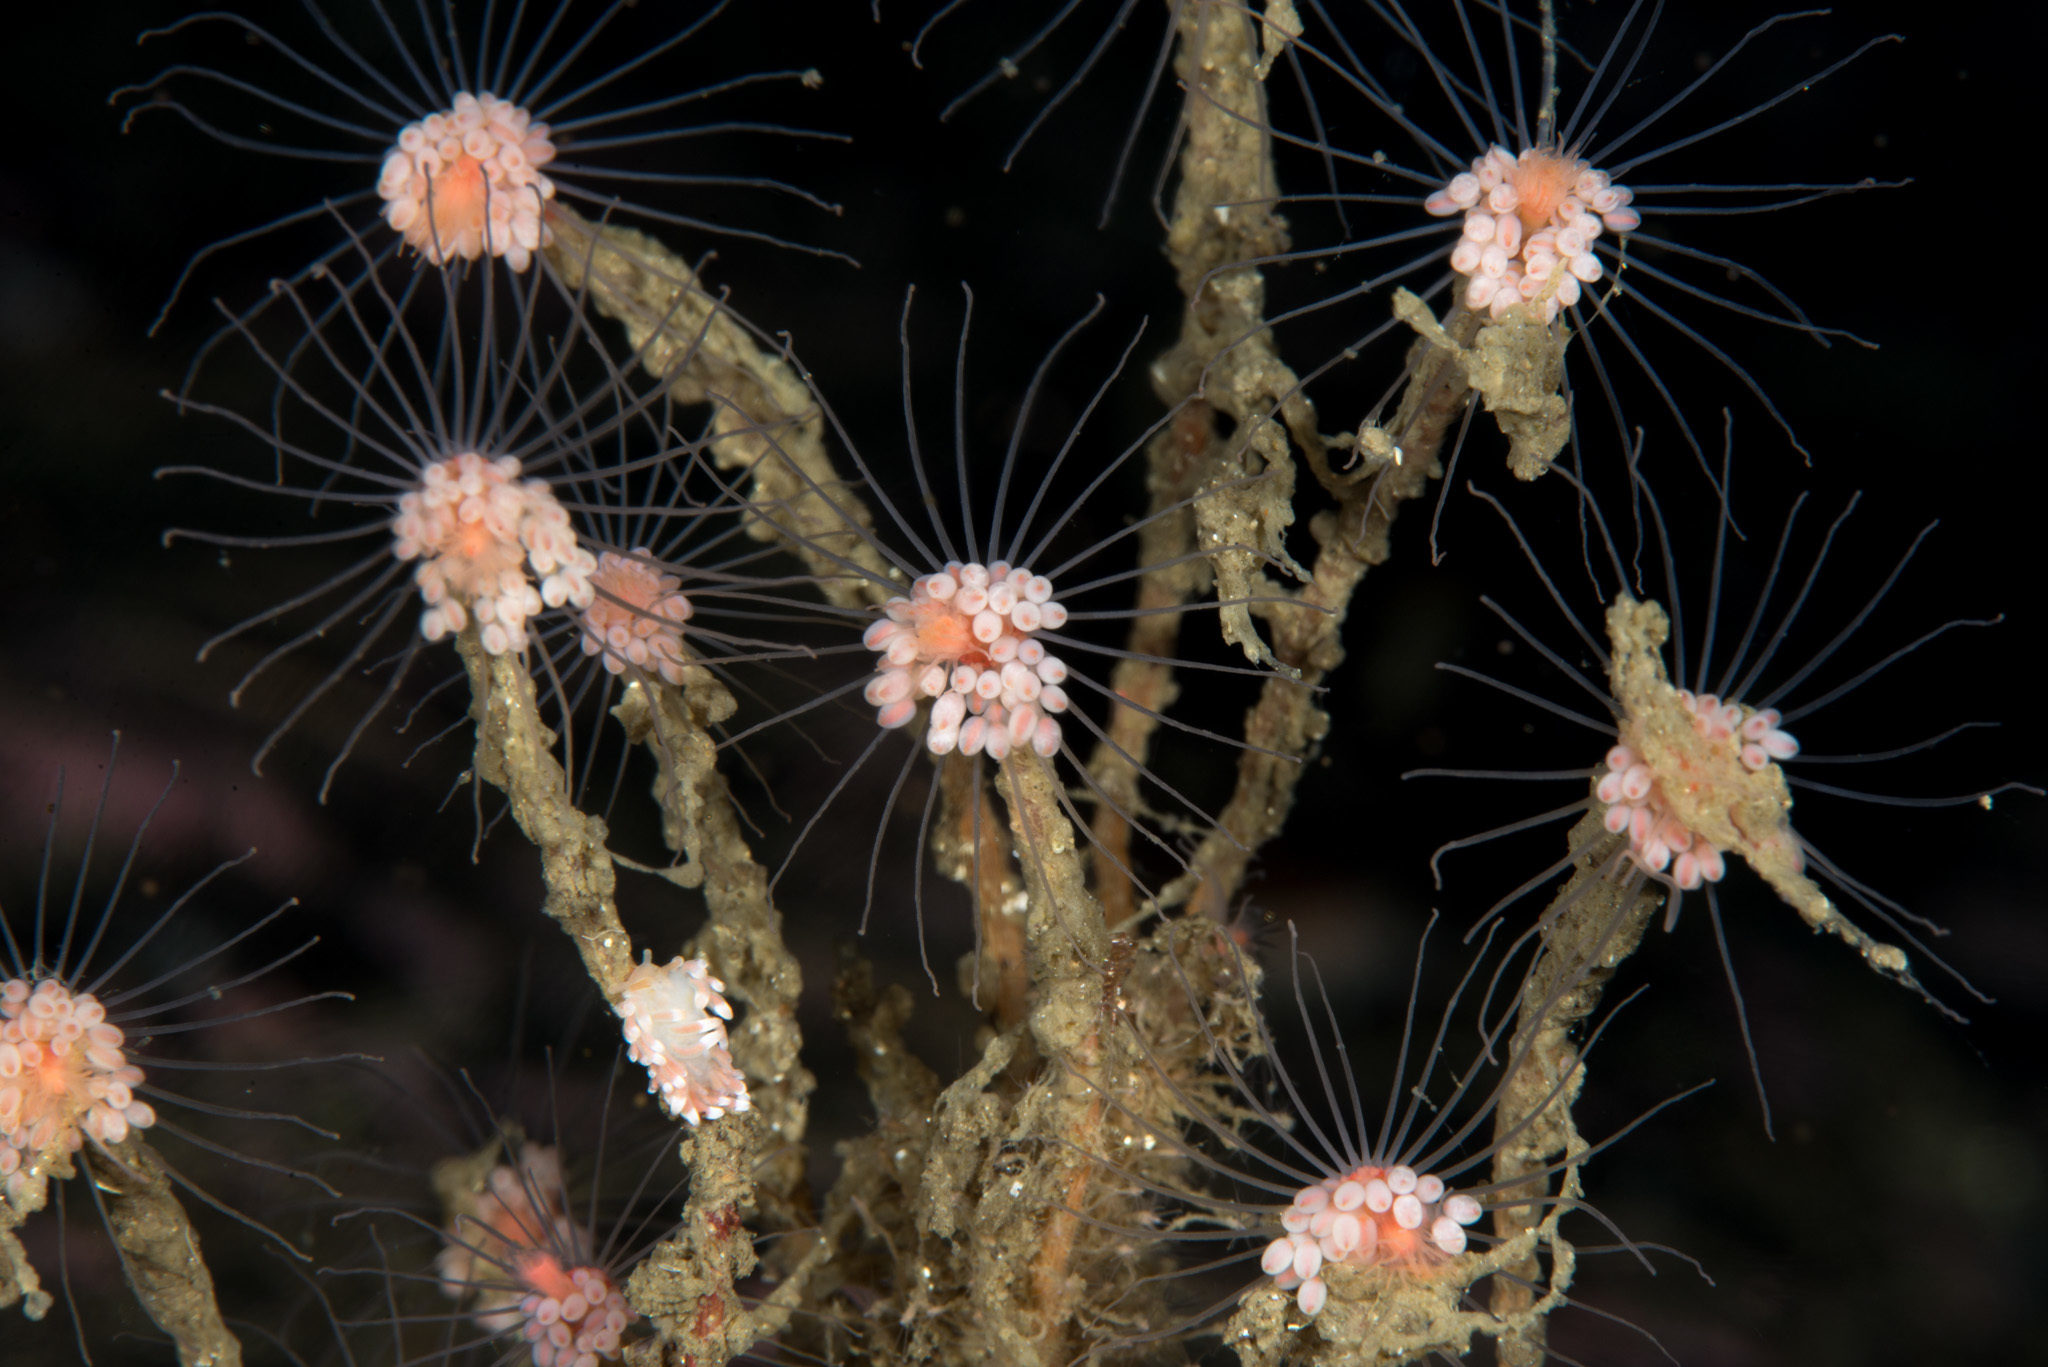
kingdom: Animalia
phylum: Cnidaria
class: Hydrozoa
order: Anthoathecata
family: Tubulariidae
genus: Tubularia
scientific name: Tubularia indivisa
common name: Oaten pipes hydroid
